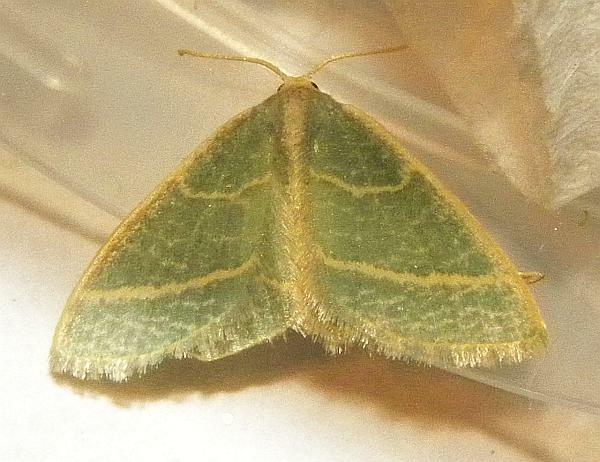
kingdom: Animalia
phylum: Arthropoda
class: Insecta
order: Lepidoptera
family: Geometridae
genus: Chlorochlamys
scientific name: Chlorochlamys chloroleucaria
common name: Blackberry looper
